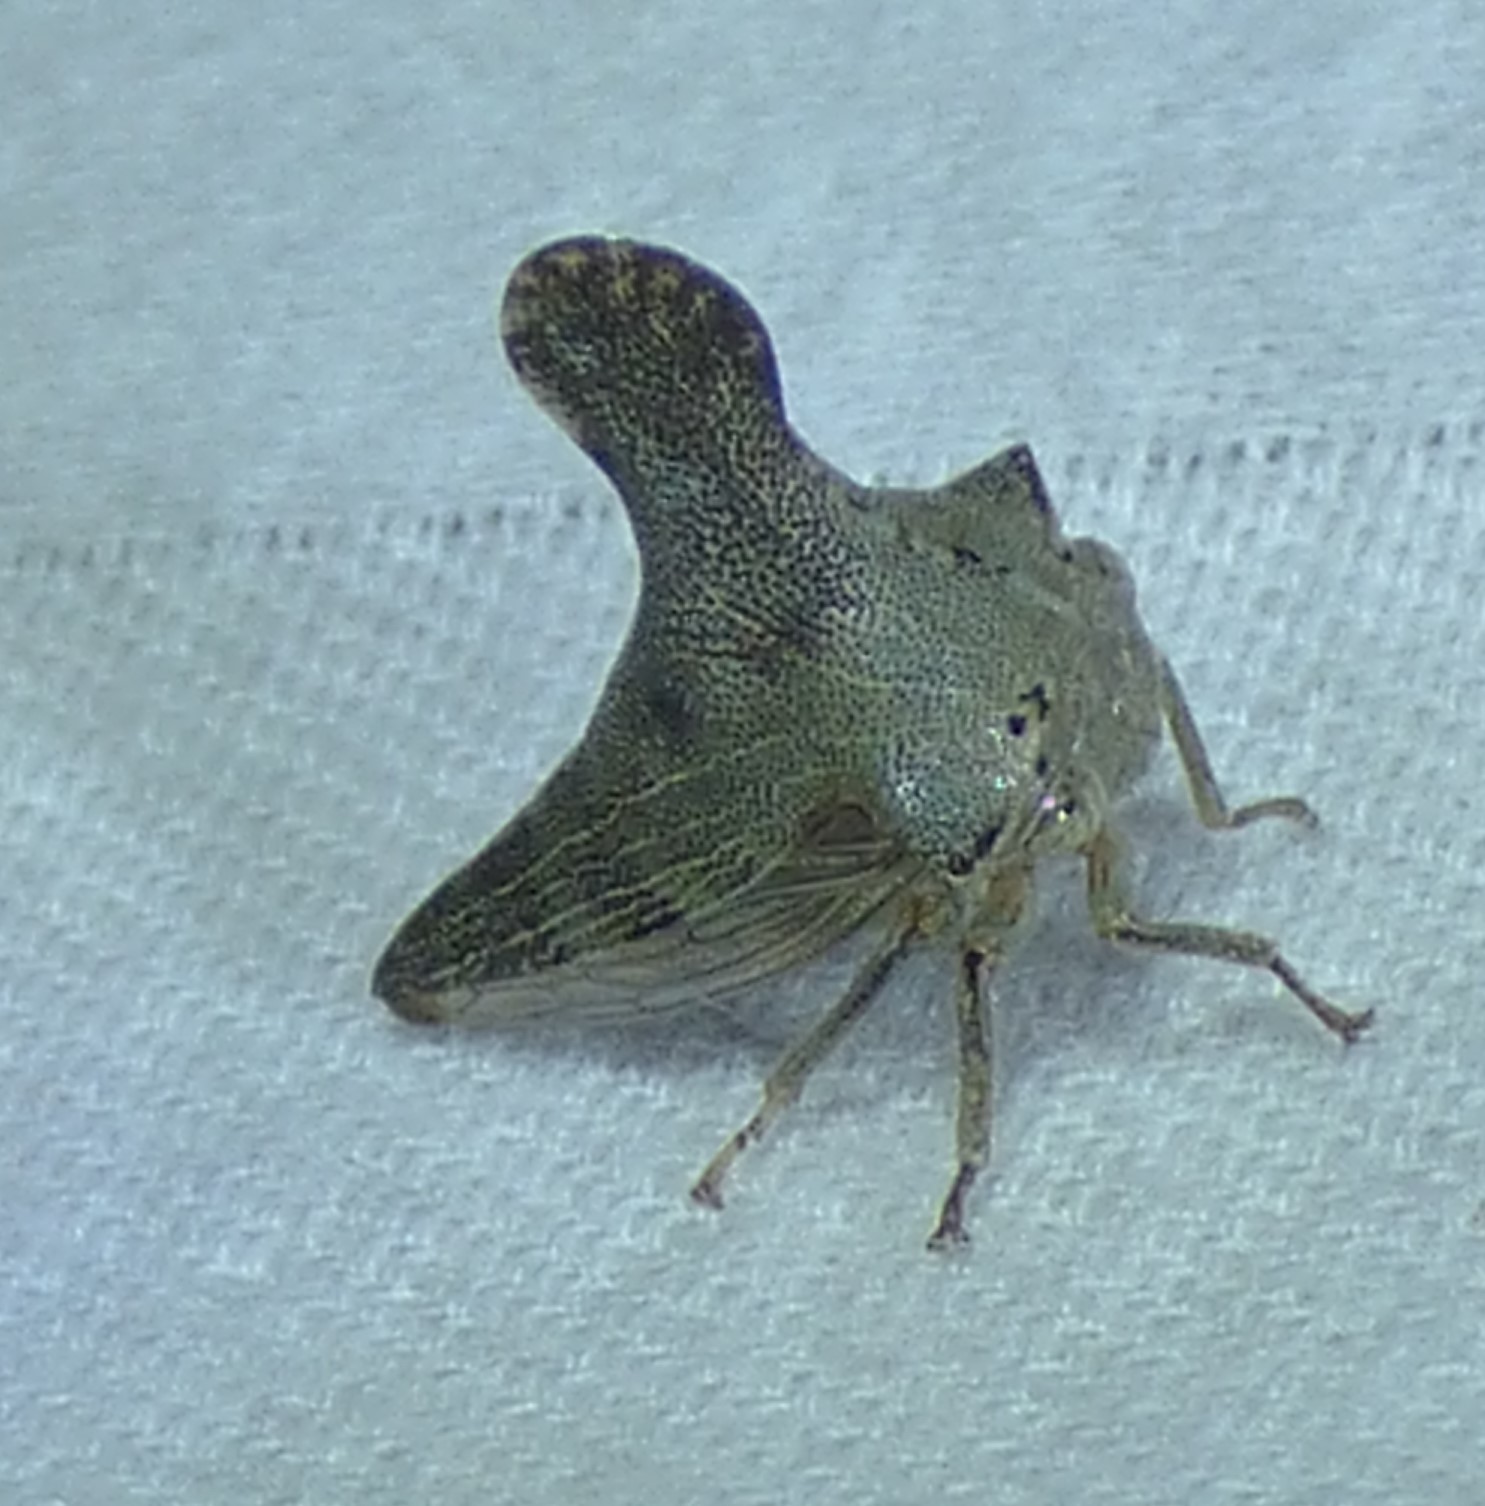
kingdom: Animalia
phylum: Arthropoda
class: Insecta
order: Hemiptera
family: Membracidae
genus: Glossonotus
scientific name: Glossonotus acuminata
